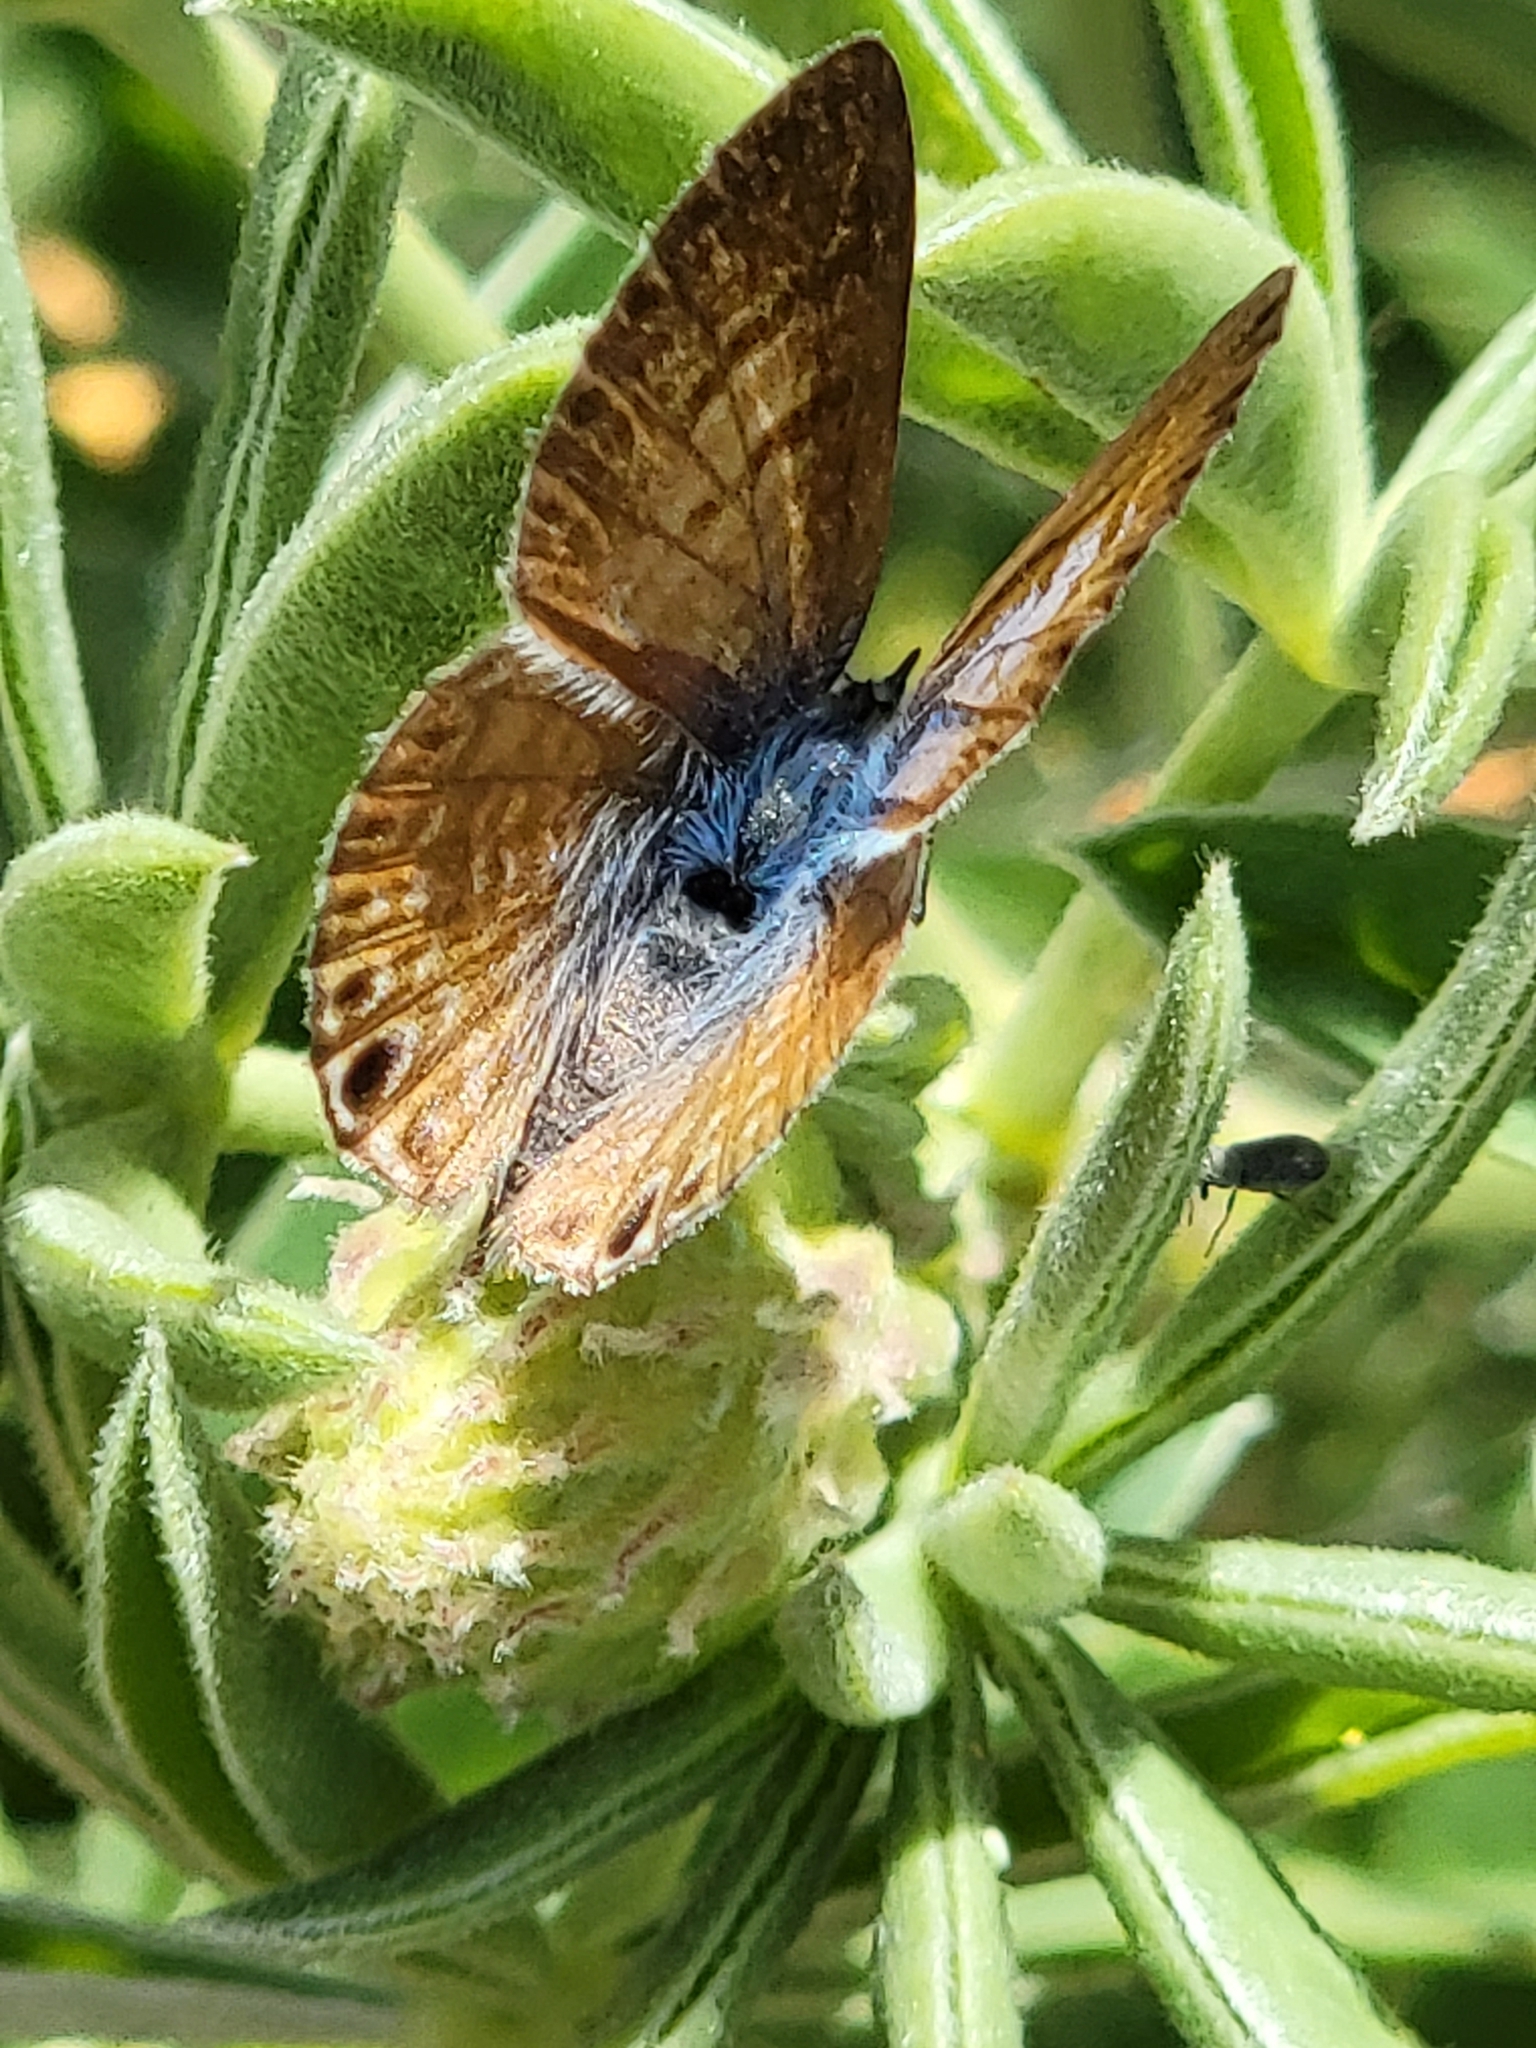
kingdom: Animalia
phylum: Arthropoda
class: Insecta
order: Lepidoptera
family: Lycaenidae
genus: Leptotes
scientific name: Leptotes marina
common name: Marine blue
